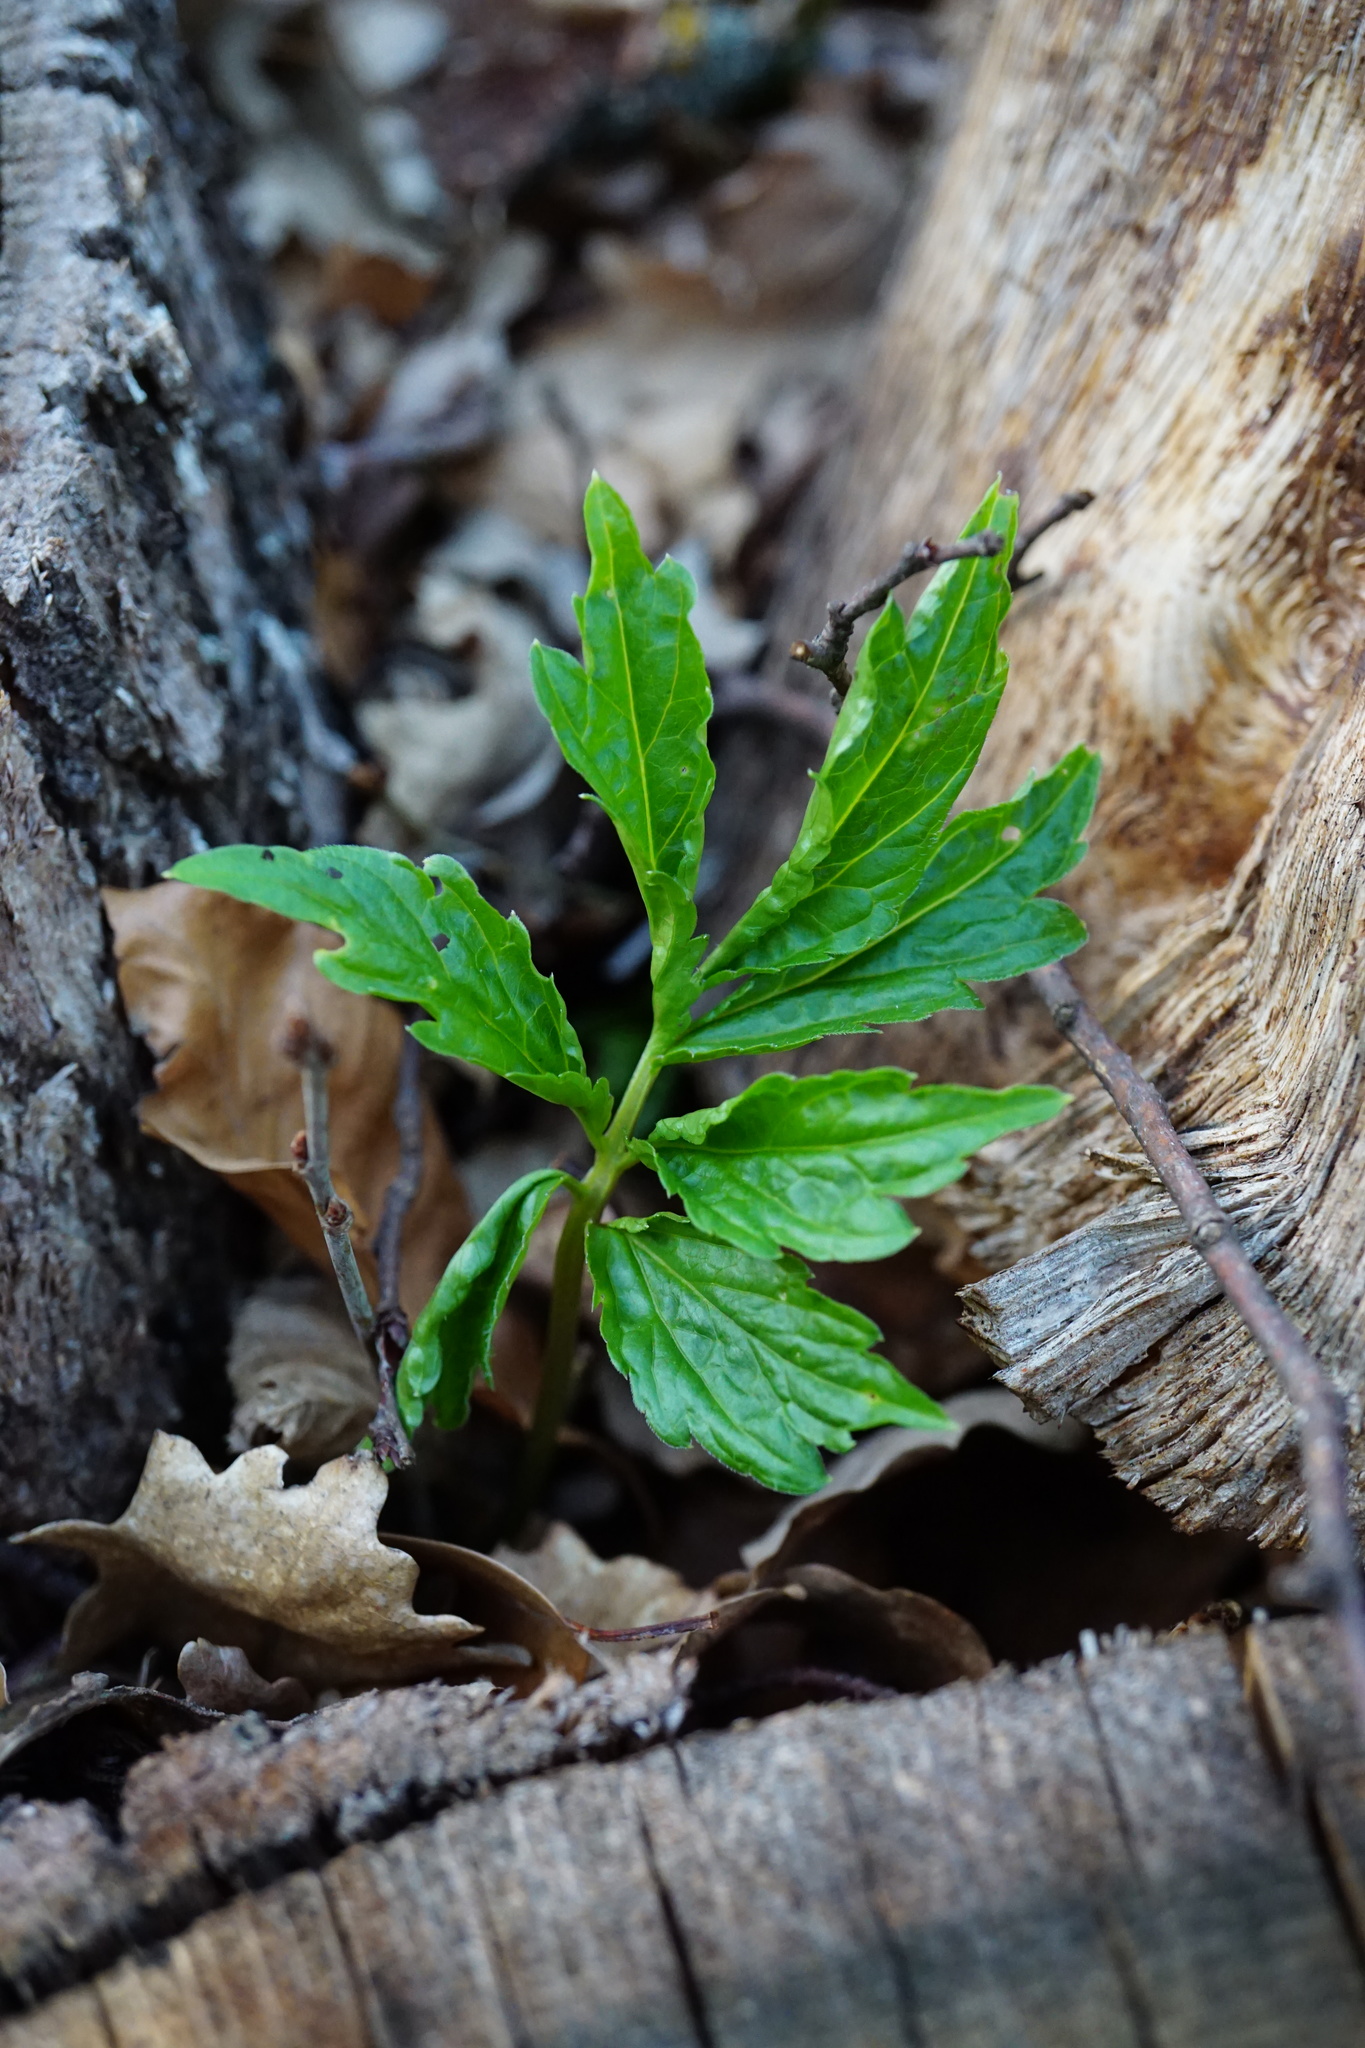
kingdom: Plantae
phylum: Tracheophyta
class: Magnoliopsida
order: Brassicales
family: Brassicaceae
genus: Cardamine
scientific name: Cardamine bulbifera
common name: Coralroot bittercress
